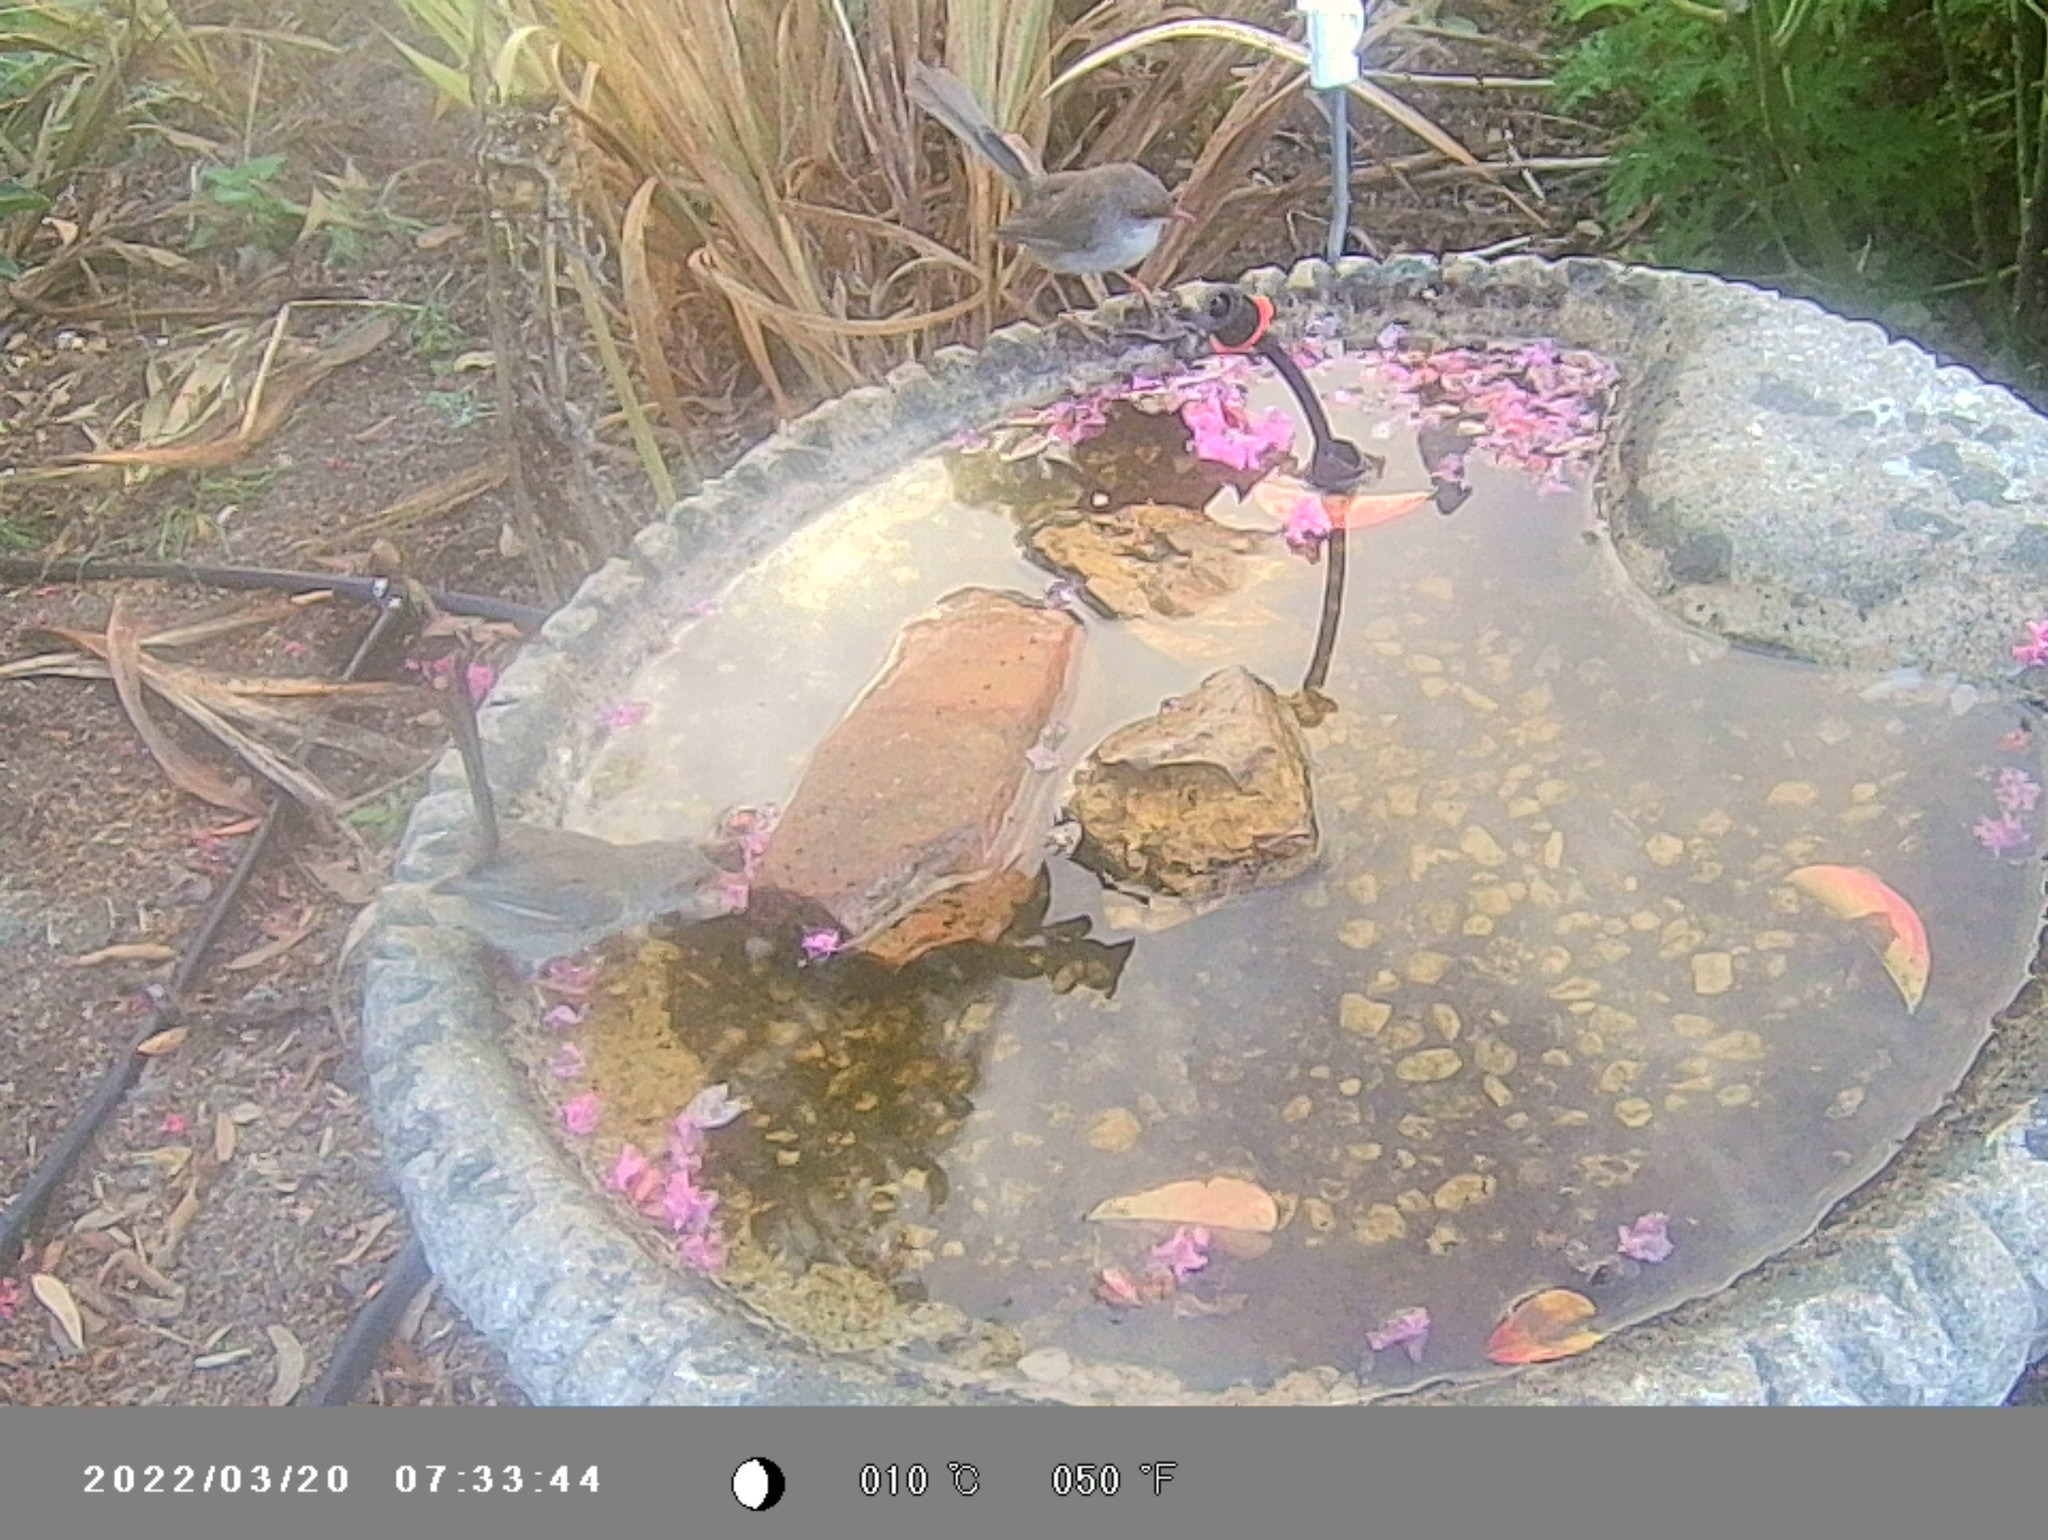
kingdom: Animalia
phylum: Chordata
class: Aves
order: Passeriformes
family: Maluridae
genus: Malurus
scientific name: Malurus cyaneus
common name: Superb fairywren
